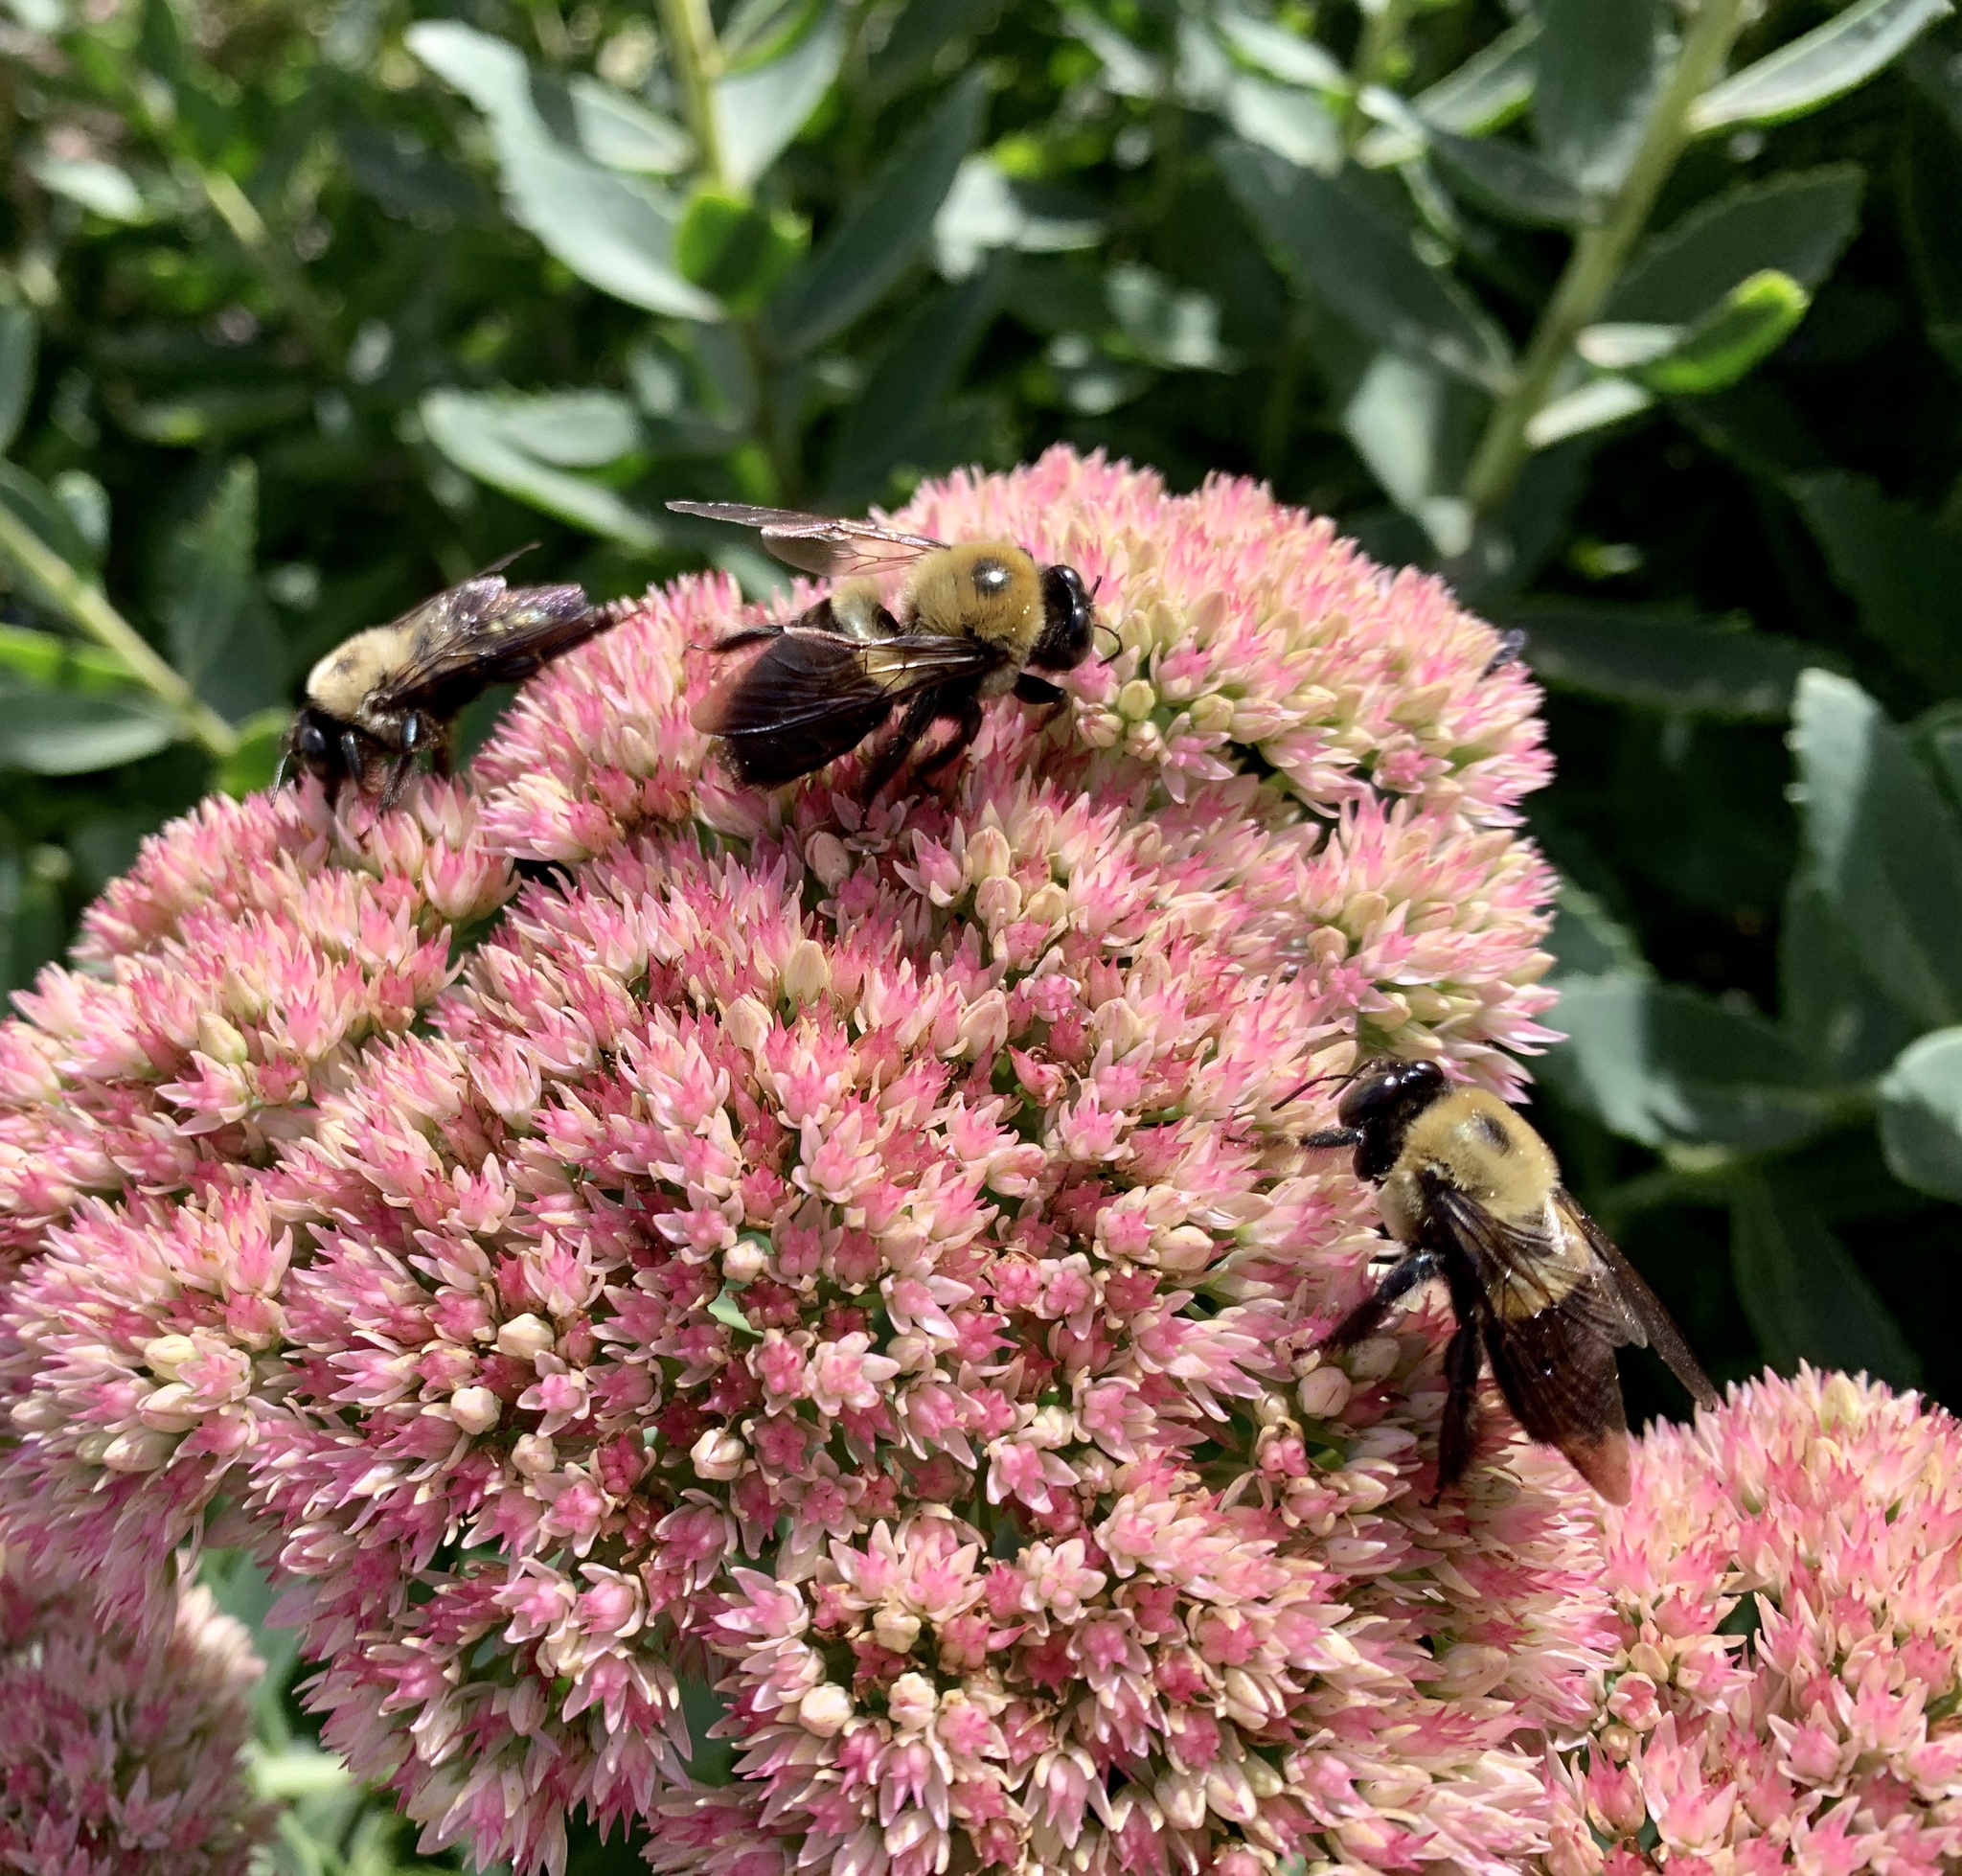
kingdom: Animalia
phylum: Arthropoda
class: Insecta
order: Hymenoptera
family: Apidae
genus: Xylocopa
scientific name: Xylocopa virginica
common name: Carpenter bee
